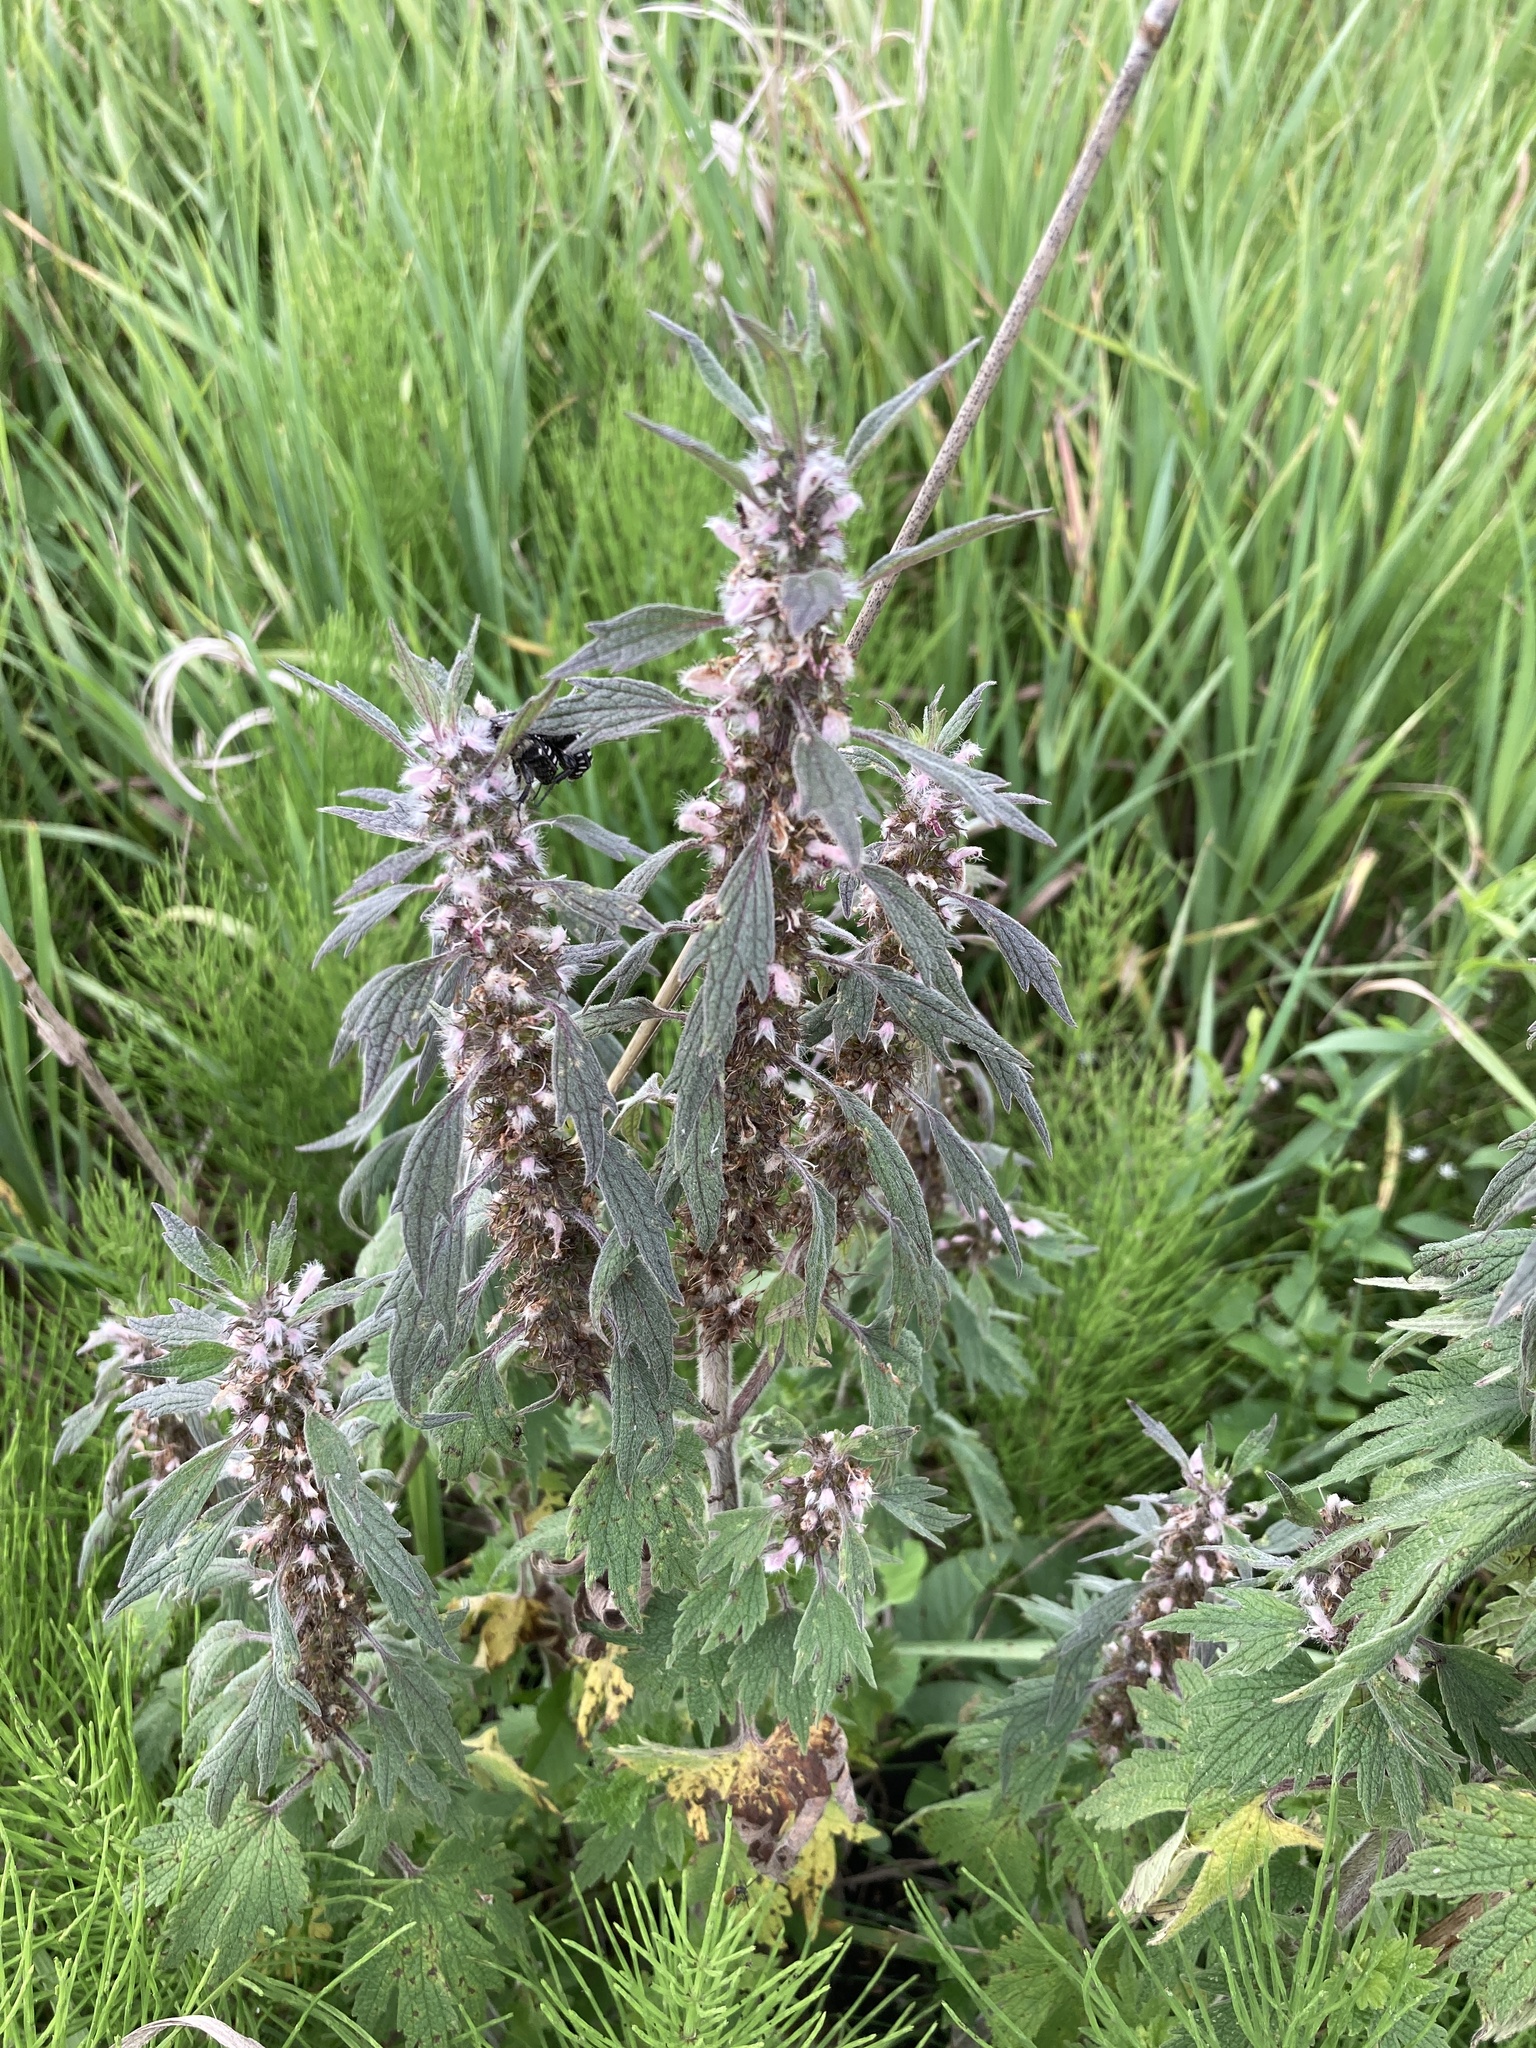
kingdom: Plantae
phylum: Tracheophyta
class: Magnoliopsida
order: Lamiales
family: Lamiaceae
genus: Leonurus
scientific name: Leonurus quinquelobatus
